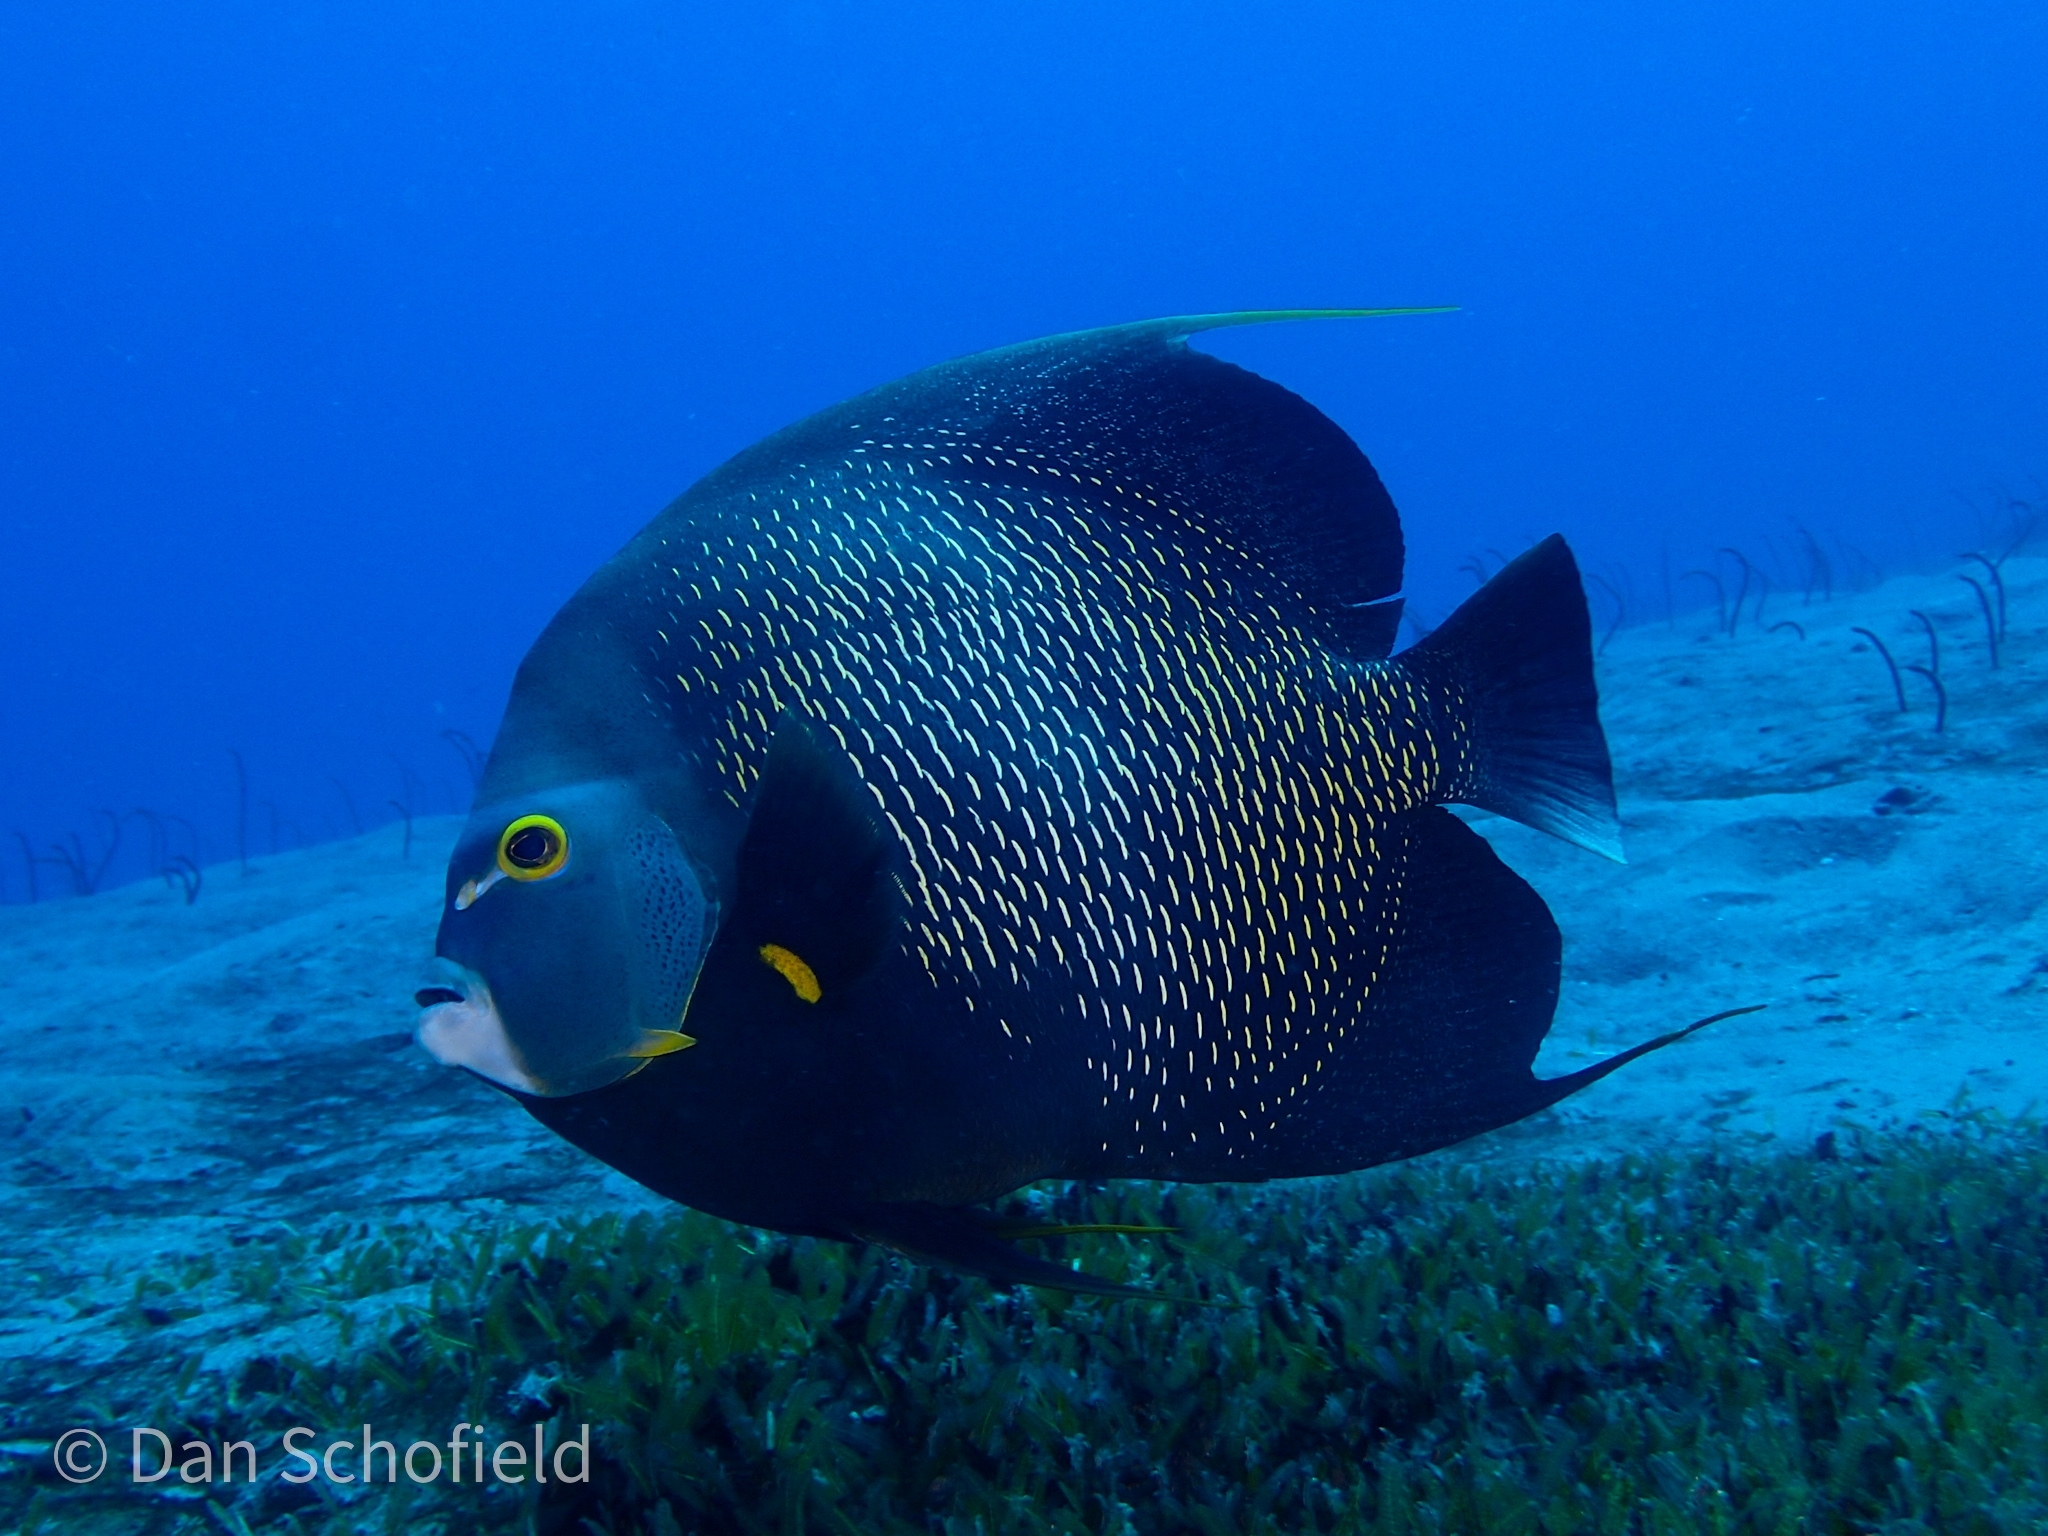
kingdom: Animalia
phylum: Chordata
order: Perciformes
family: Pomacanthidae
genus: Pomacanthus
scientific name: Pomacanthus paru
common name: French angelfish
